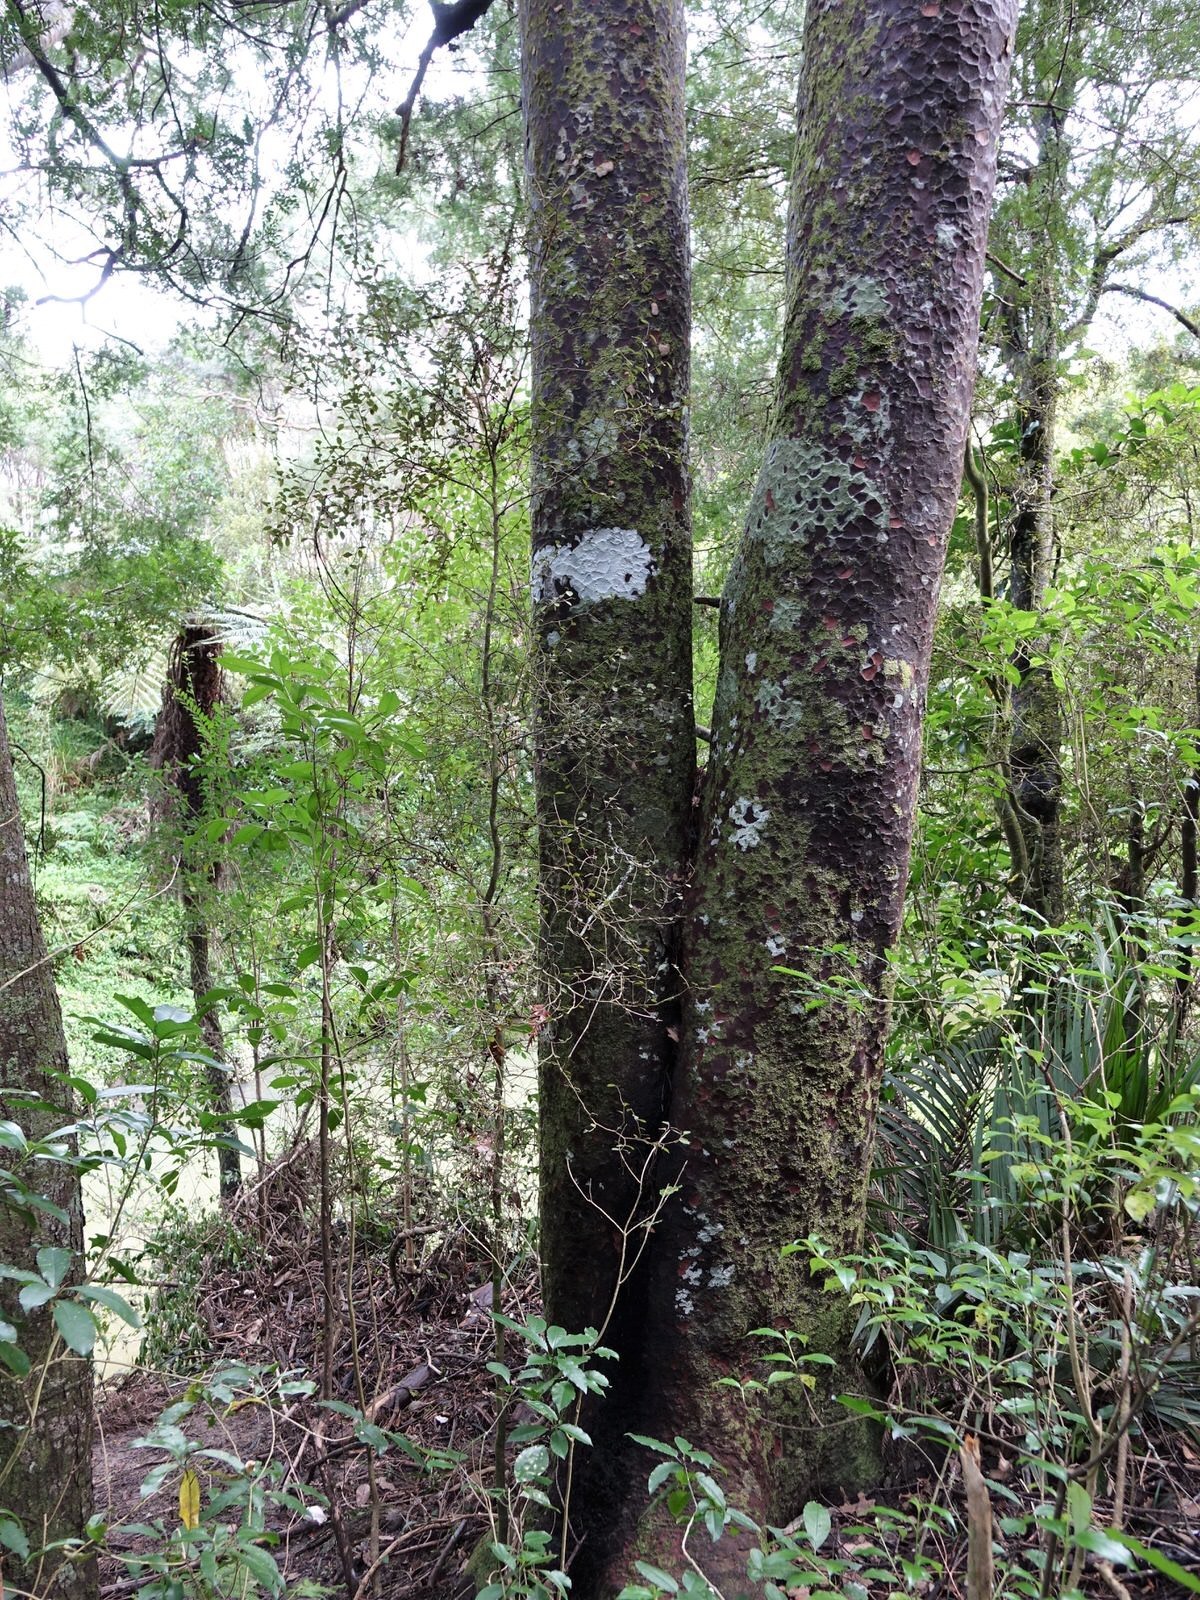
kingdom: Plantae
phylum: Tracheophyta
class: Pinopsida
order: Pinales
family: Podocarpaceae
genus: Prumnopitys
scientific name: Prumnopitys taxifolia
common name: Matai
